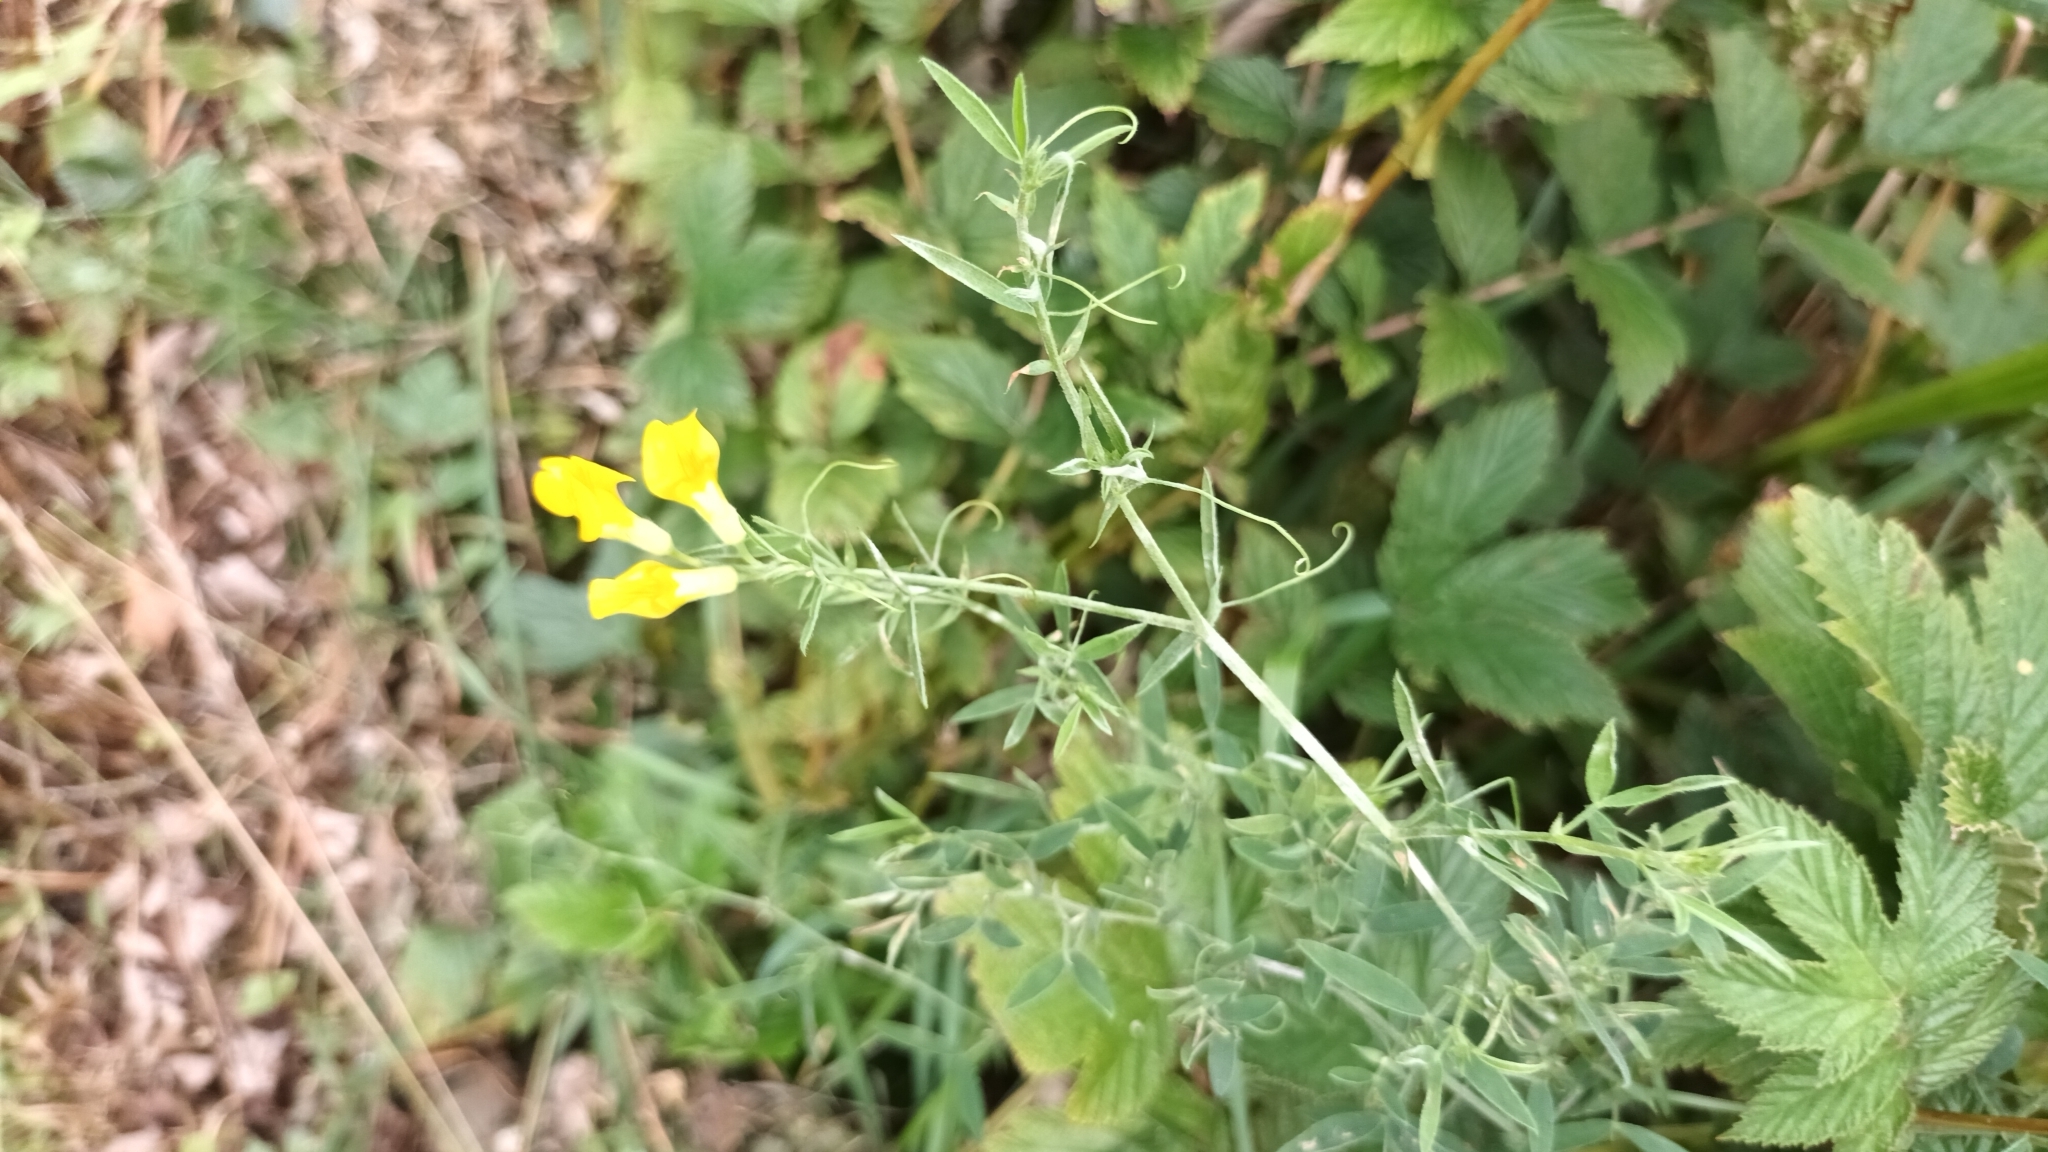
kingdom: Plantae
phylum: Tracheophyta
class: Magnoliopsida
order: Fabales
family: Fabaceae
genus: Lathyrus
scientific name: Lathyrus pratensis
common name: Meadow vetchling
